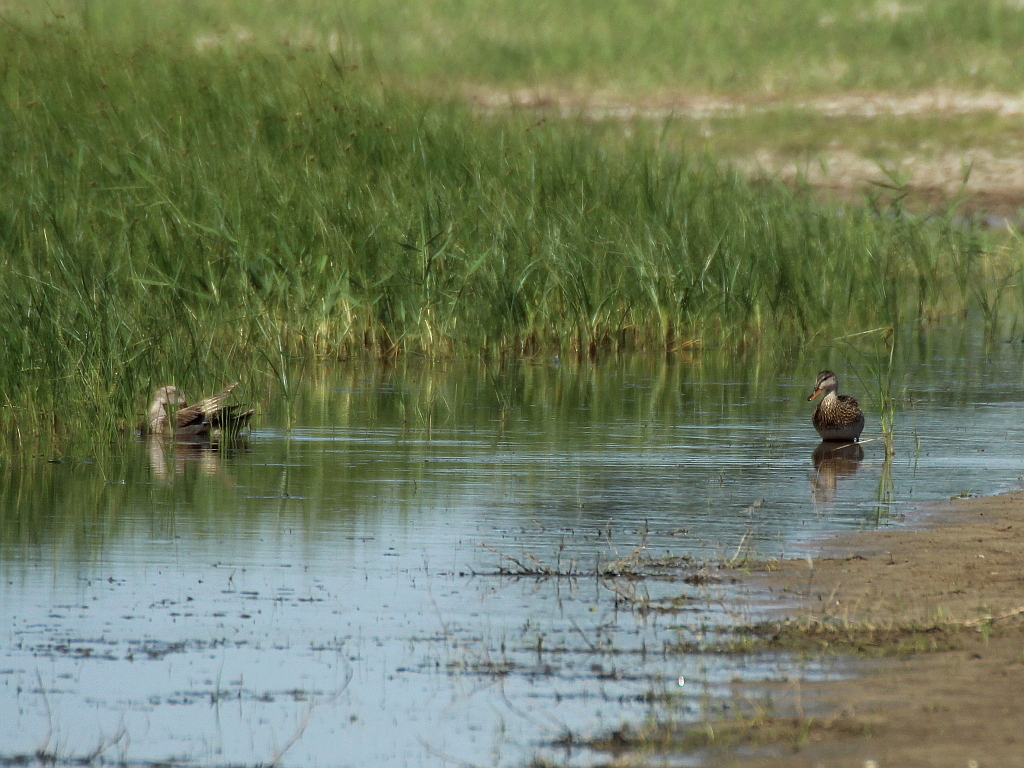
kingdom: Animalia
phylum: Chordata
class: Aves
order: Anseriformes
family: Anatidae
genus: Mareca
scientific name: Mareca strepera
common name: Gadwall
